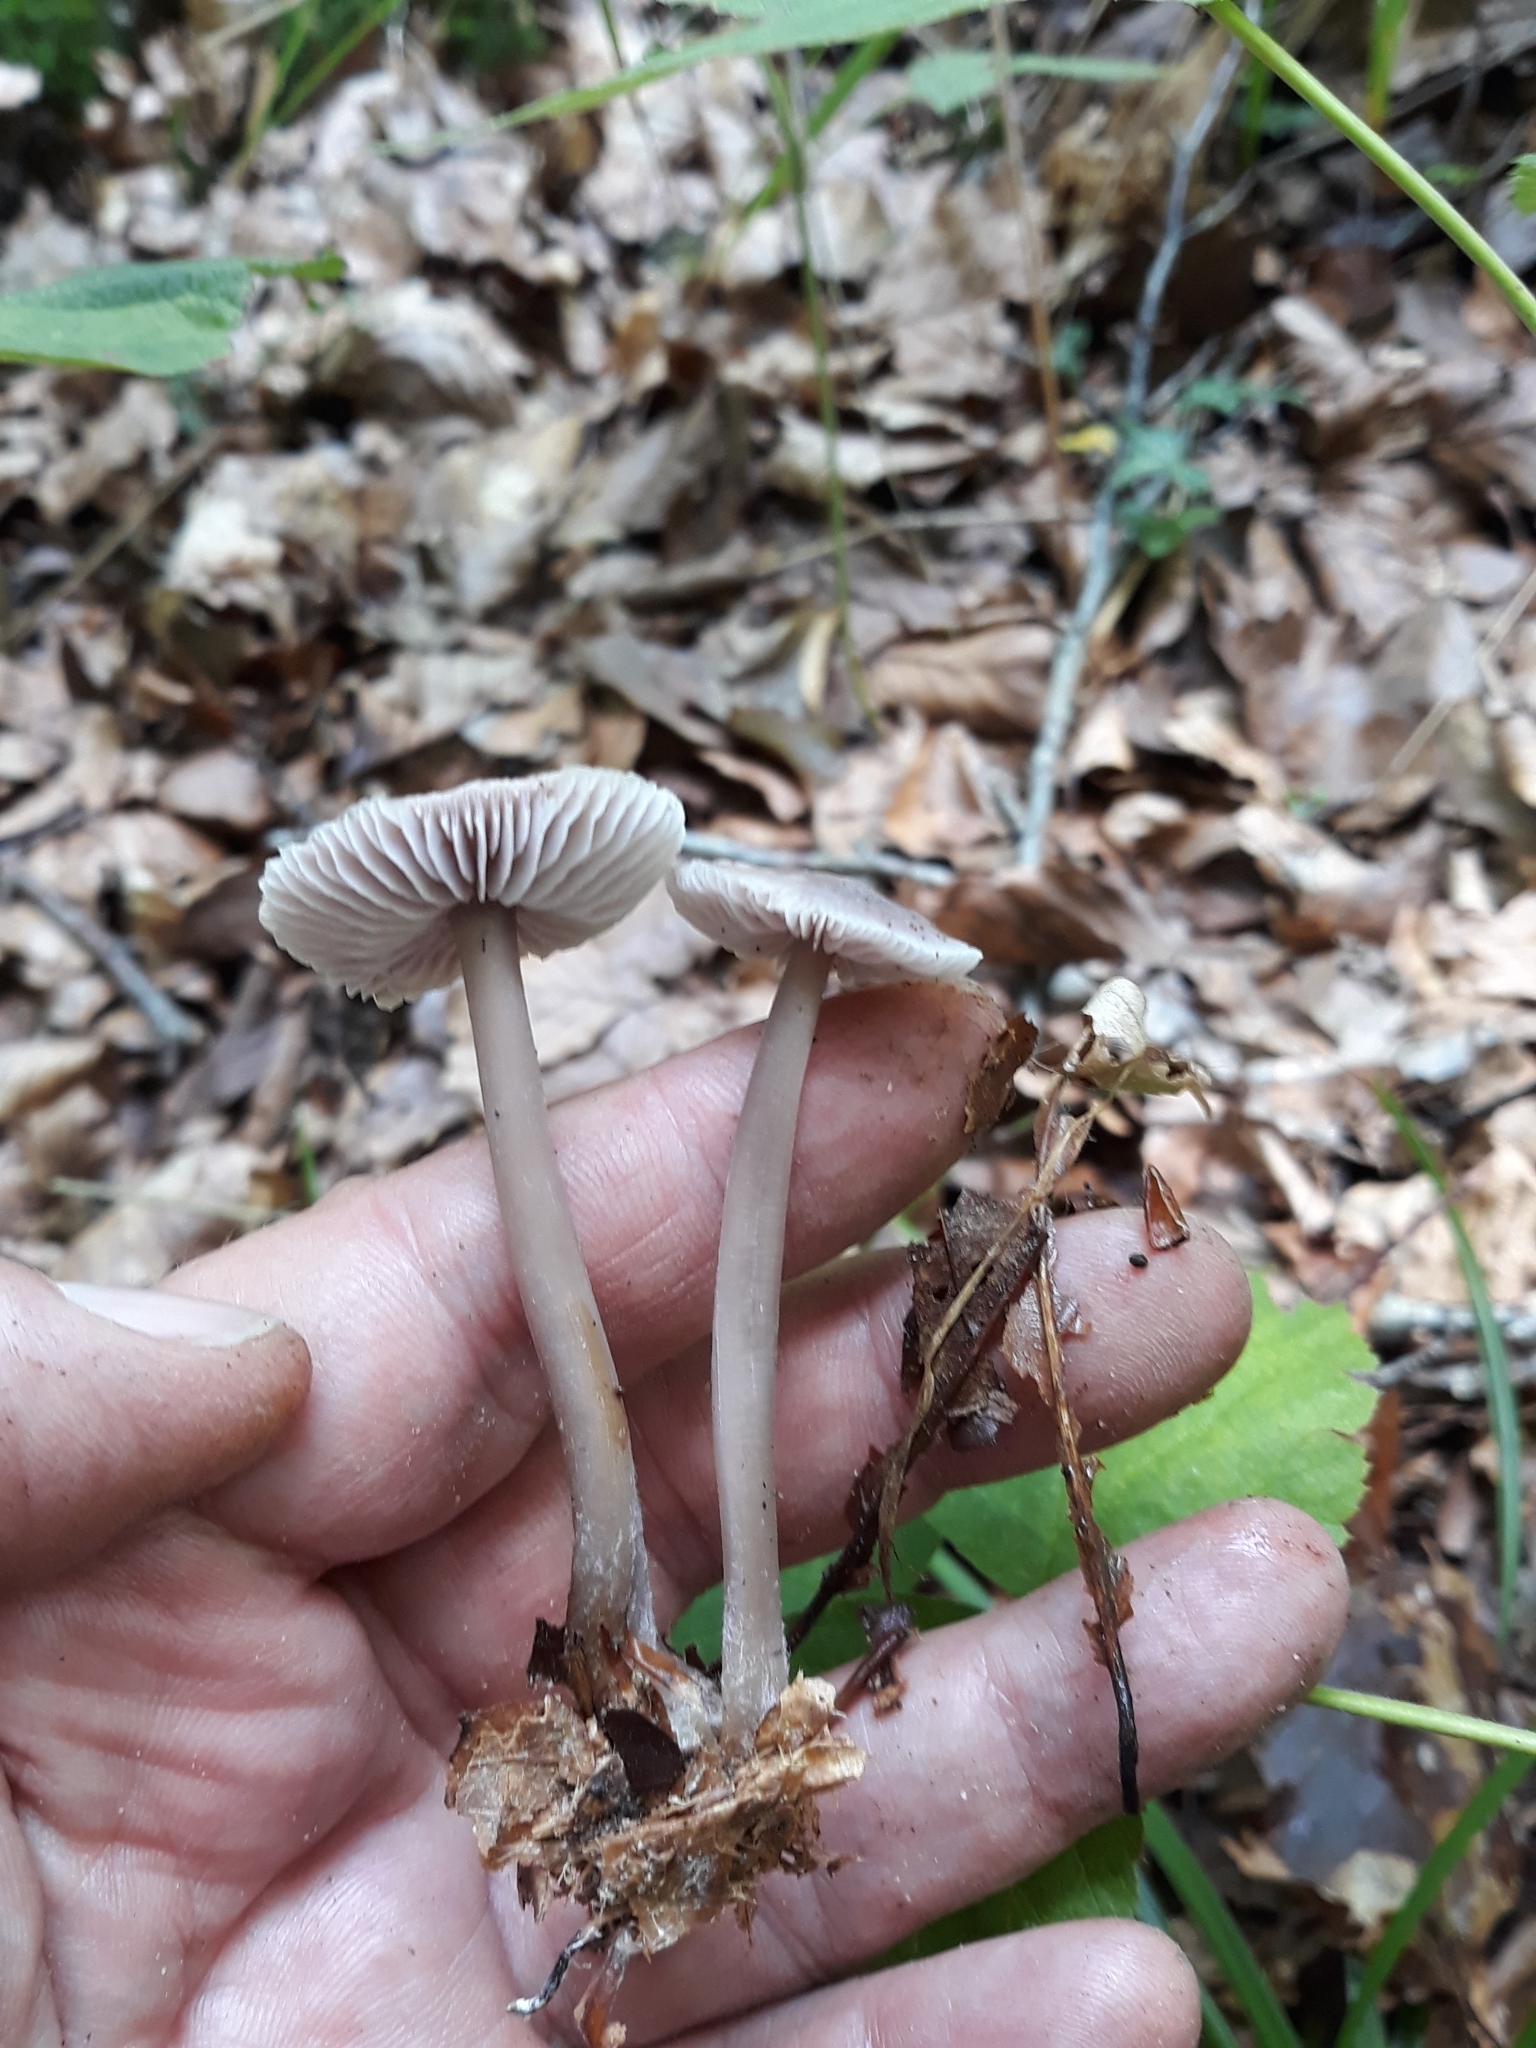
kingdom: Fungi
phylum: Basidiomycota
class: Agaricomycetes
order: Agaricales
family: Mycenaceae
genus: Mycena
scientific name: Mycena pura
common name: Lilac bonnet
